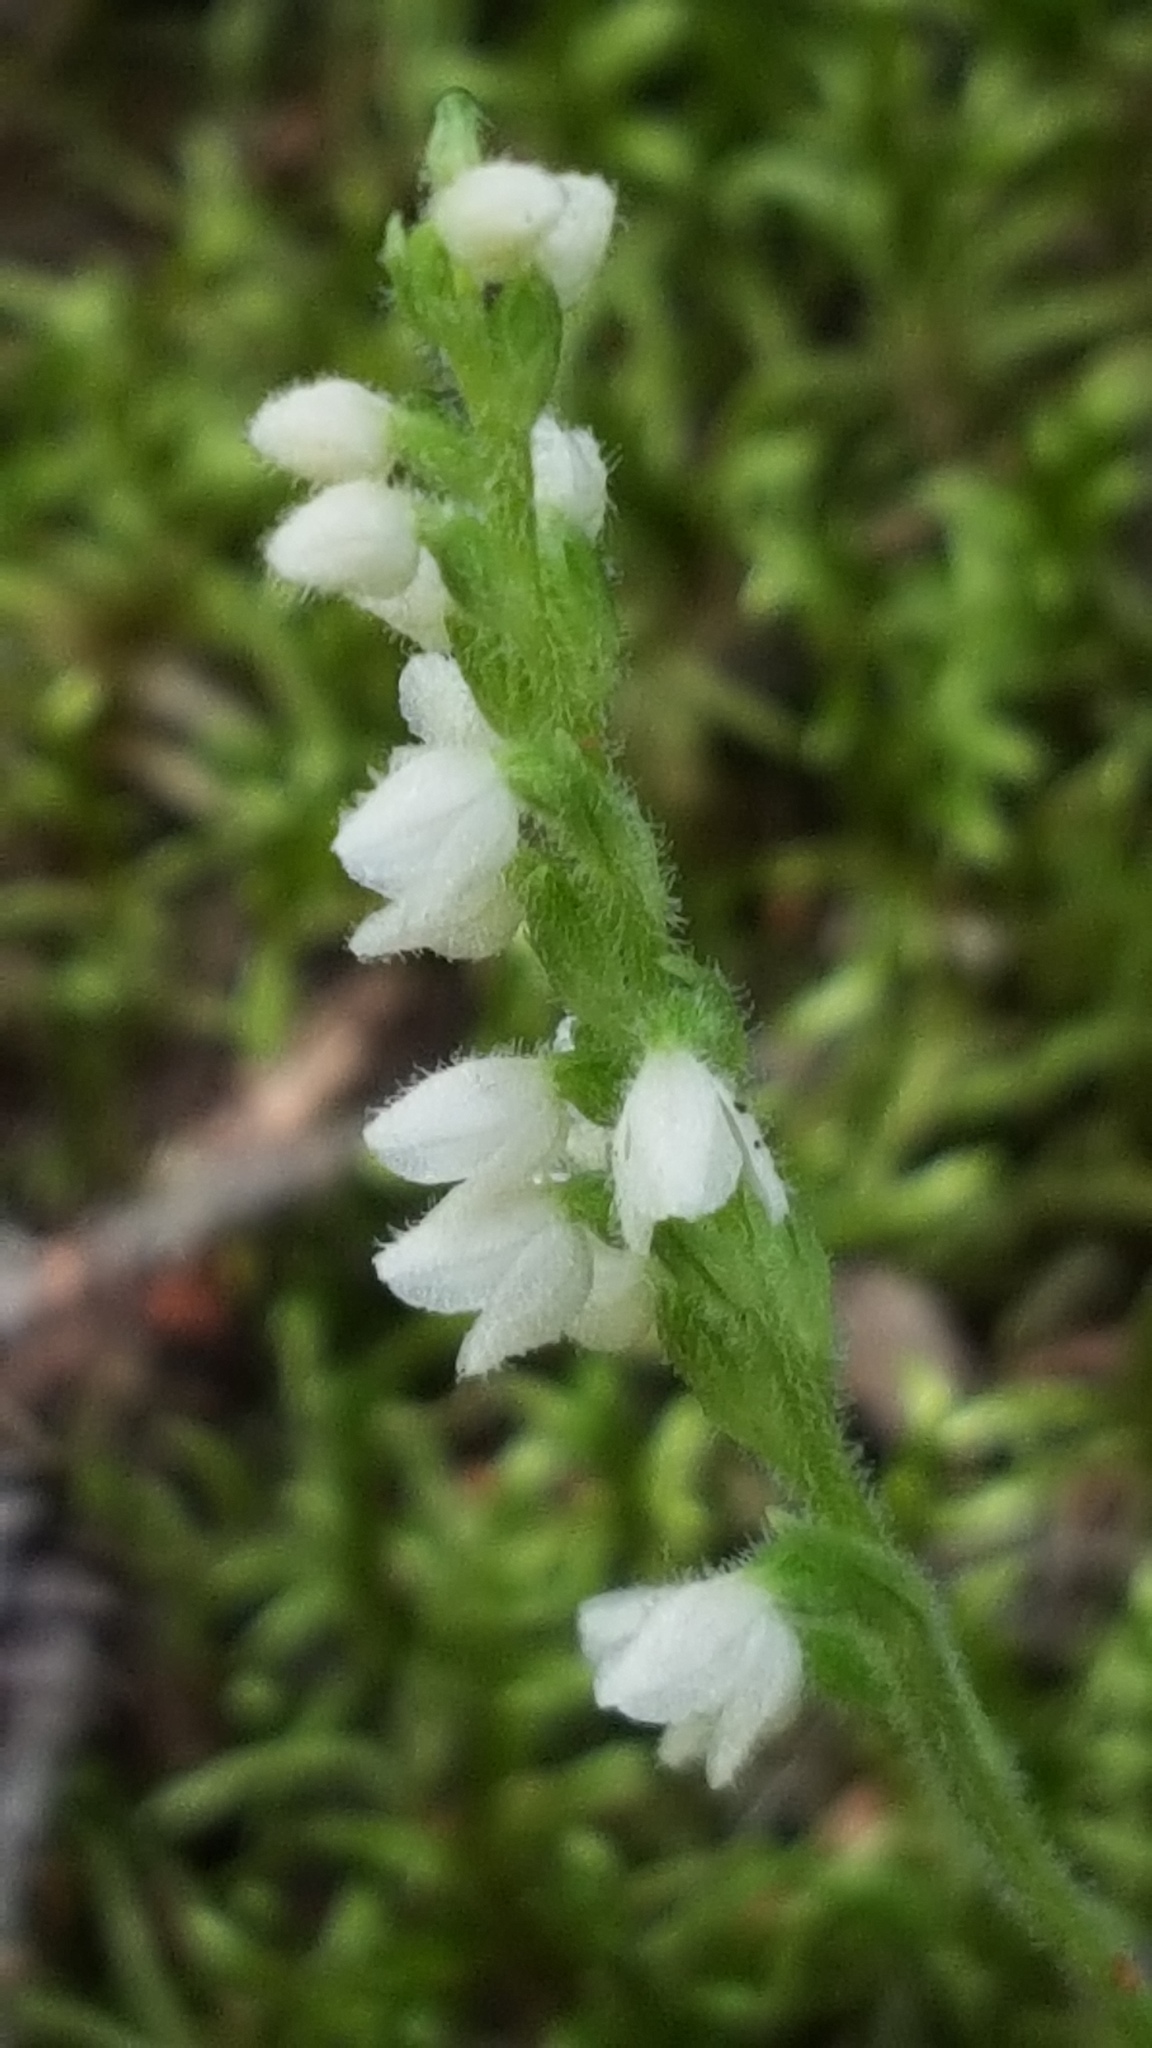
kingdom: Plantae
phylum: Tracheophyta
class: Liliopsida
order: Asparagales
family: Orchidaceae
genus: Goodyera
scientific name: Goodyera repens
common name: Creeping lady's-tresses
